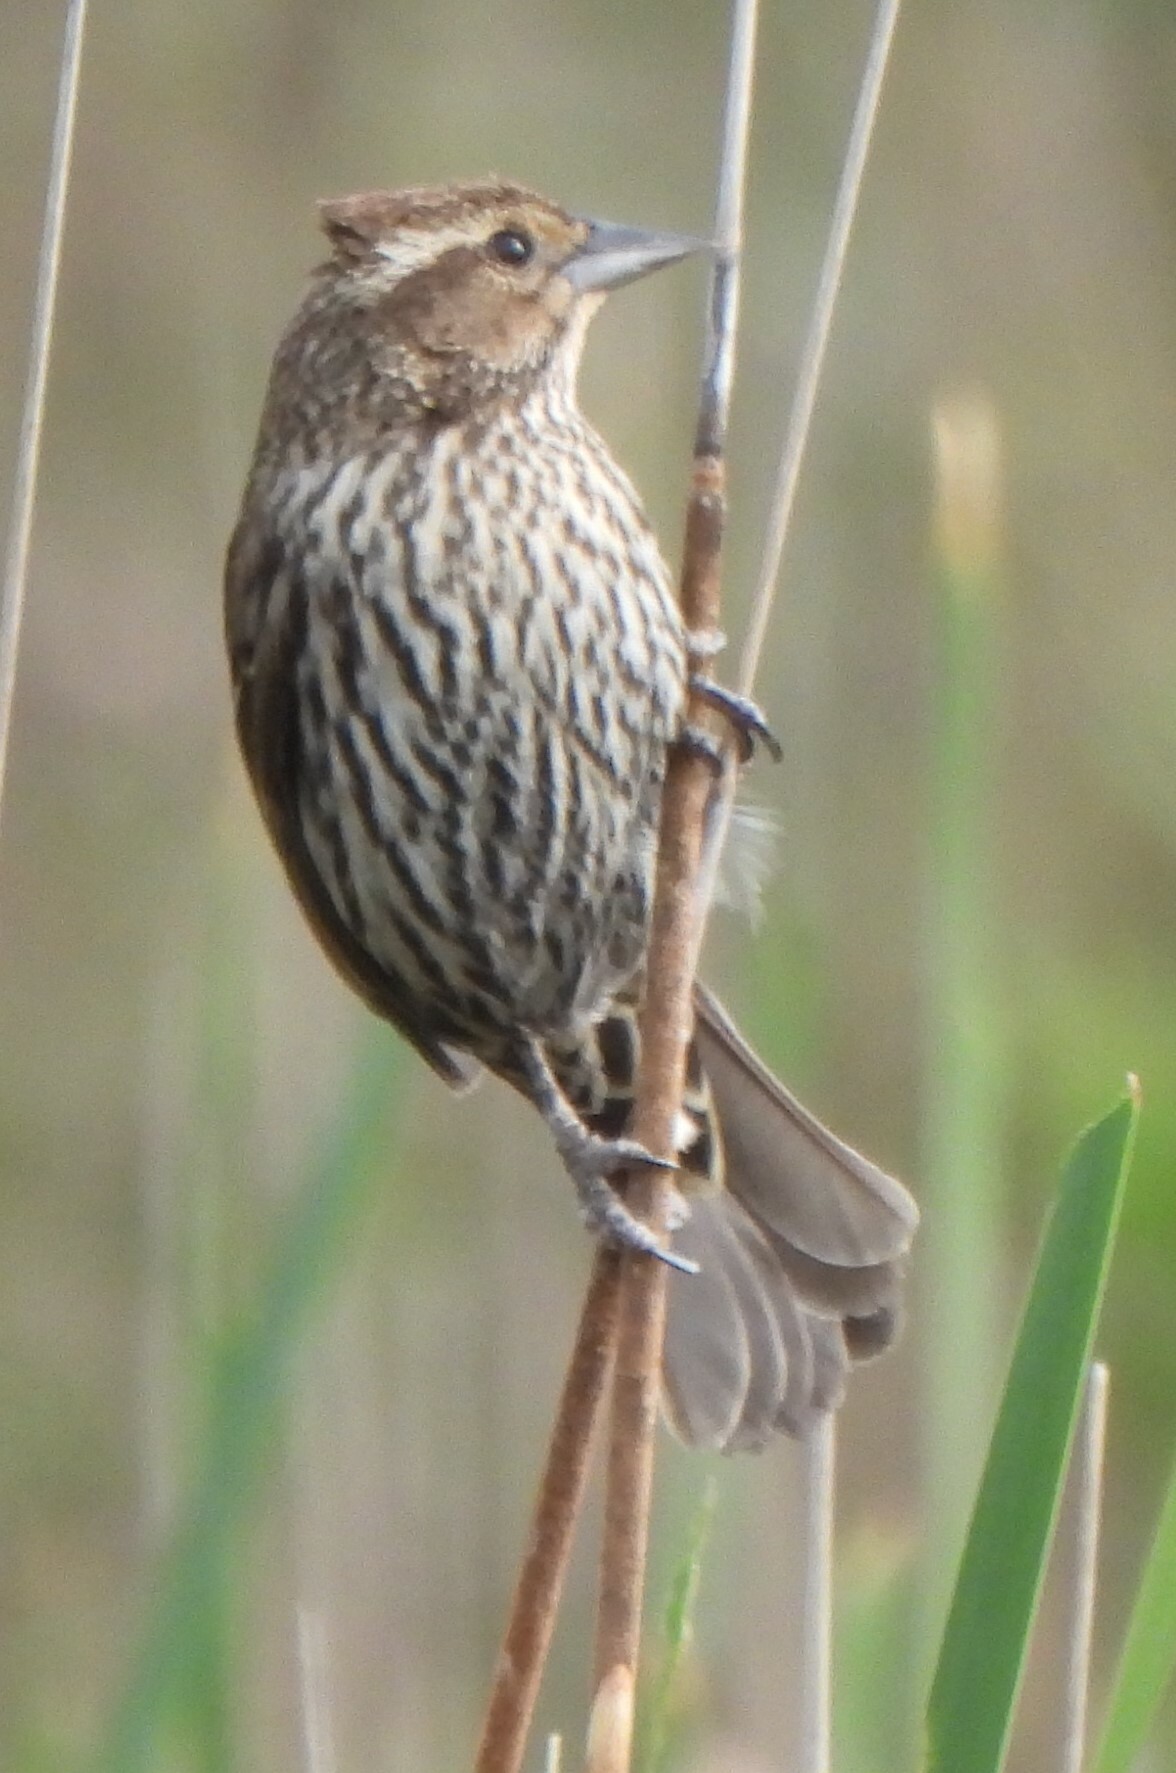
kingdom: Animalia
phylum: Chordata
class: Aves
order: Passeriformes
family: Icteridae
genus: Agelaius
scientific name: Agelaius phoeniceus
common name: Red-winged blackbird
